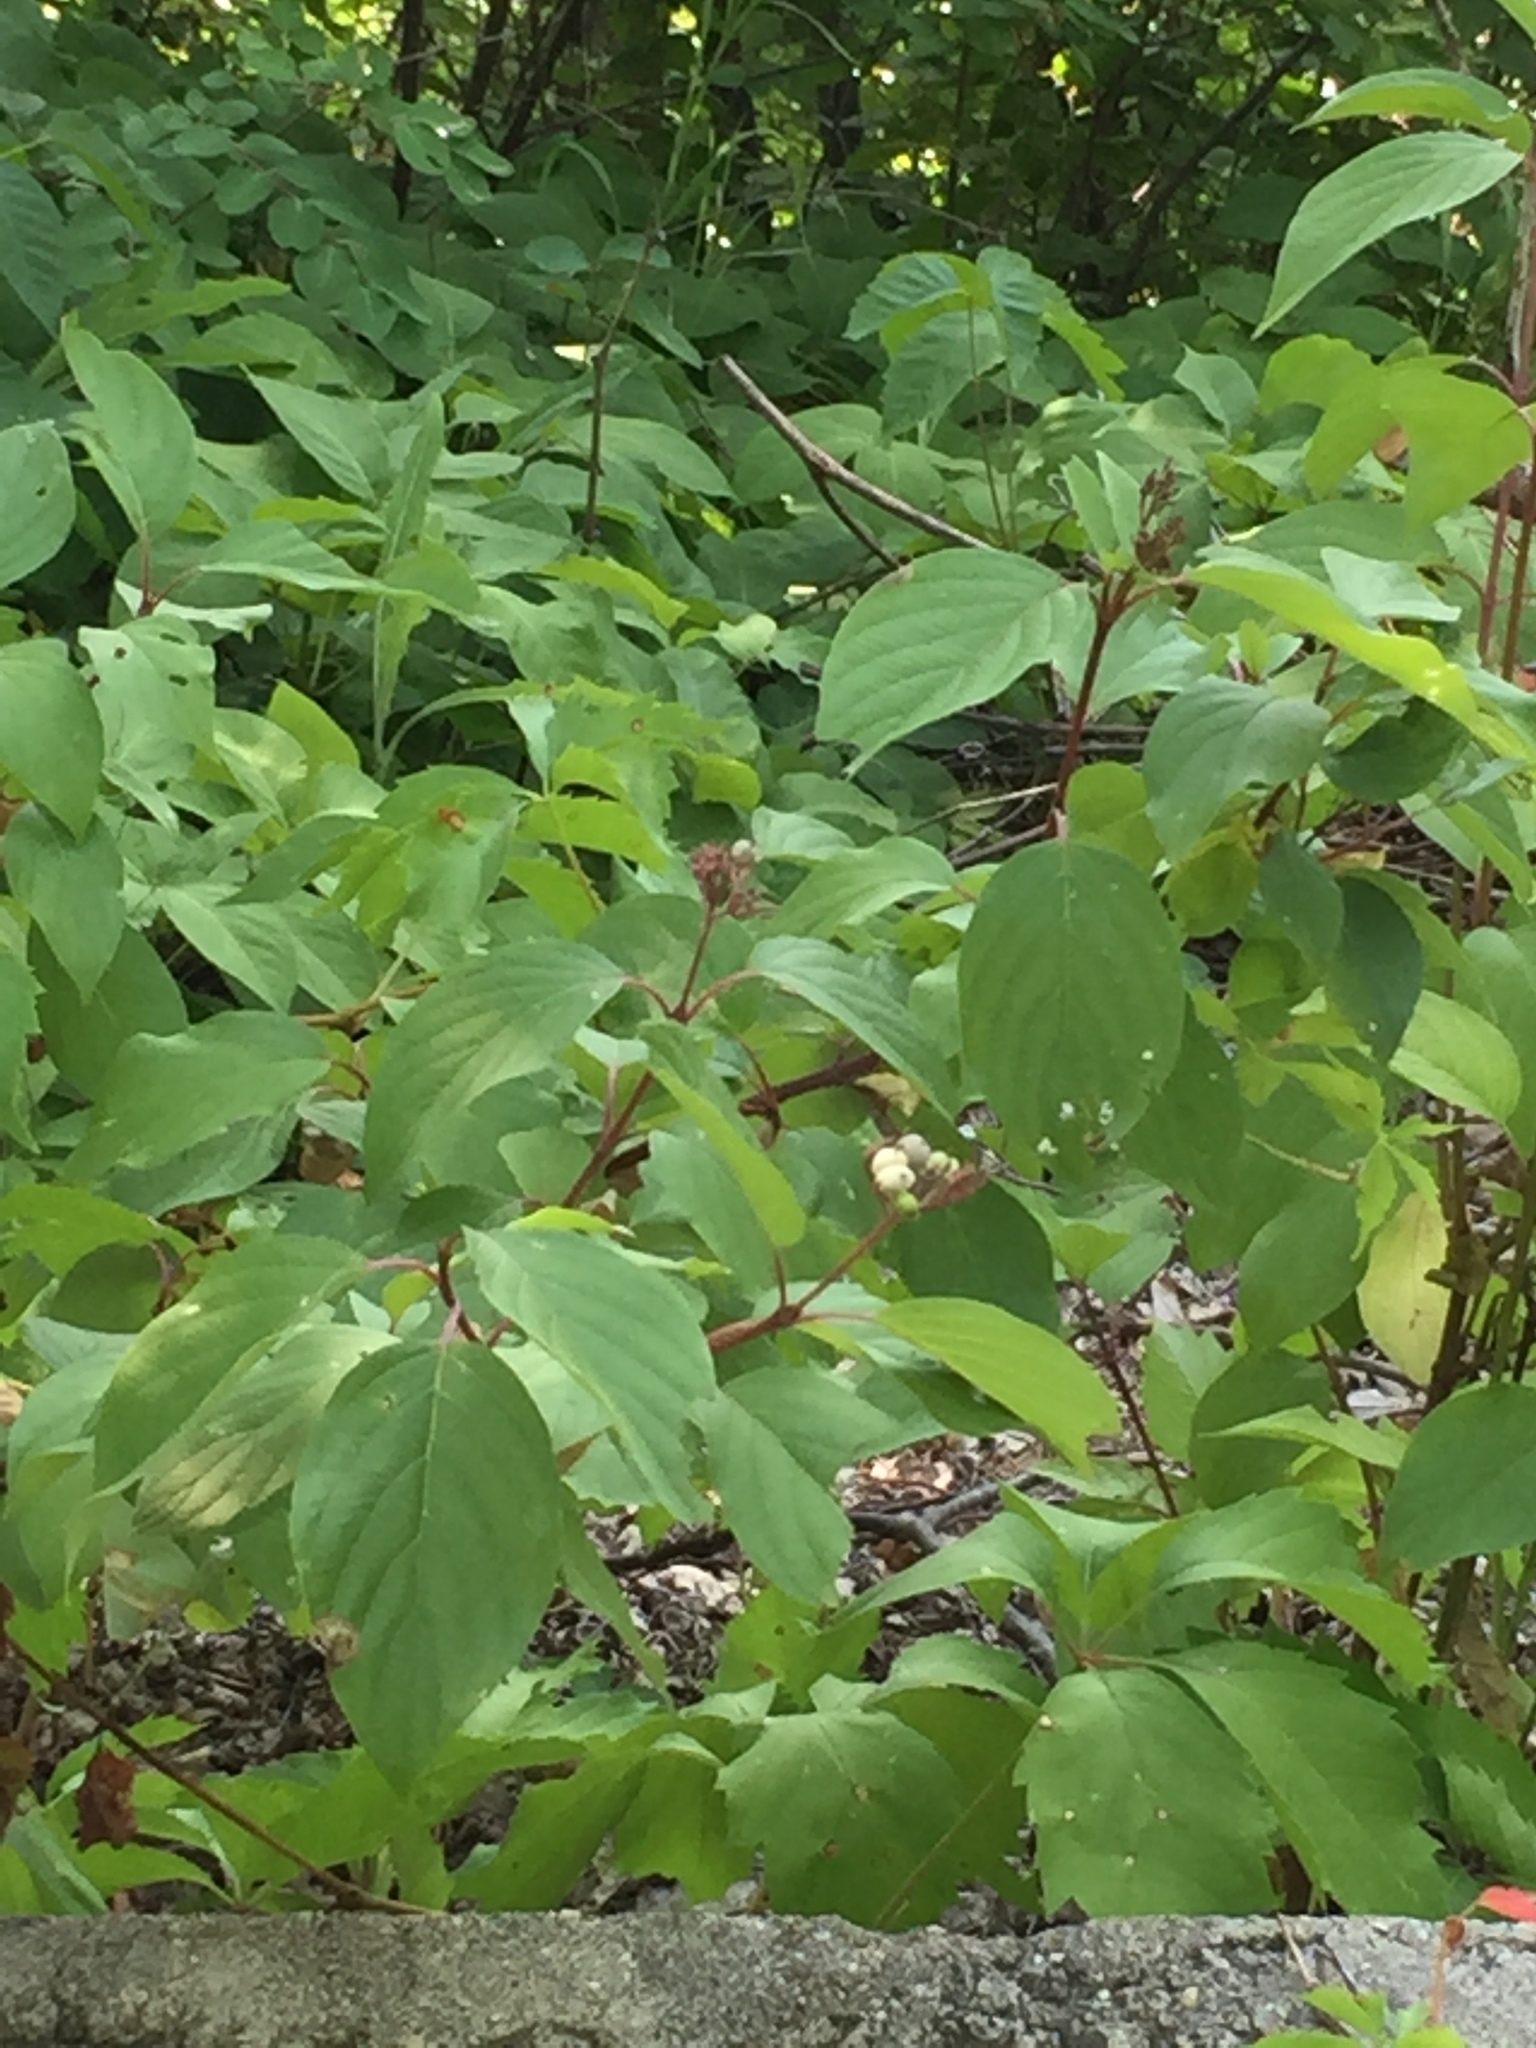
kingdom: Plantae
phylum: Tracheophyta
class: Magnoliopsida
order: Cornales
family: Cornaceae
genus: Cornus
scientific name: Cornus sericea
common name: Red-osier dogwood
